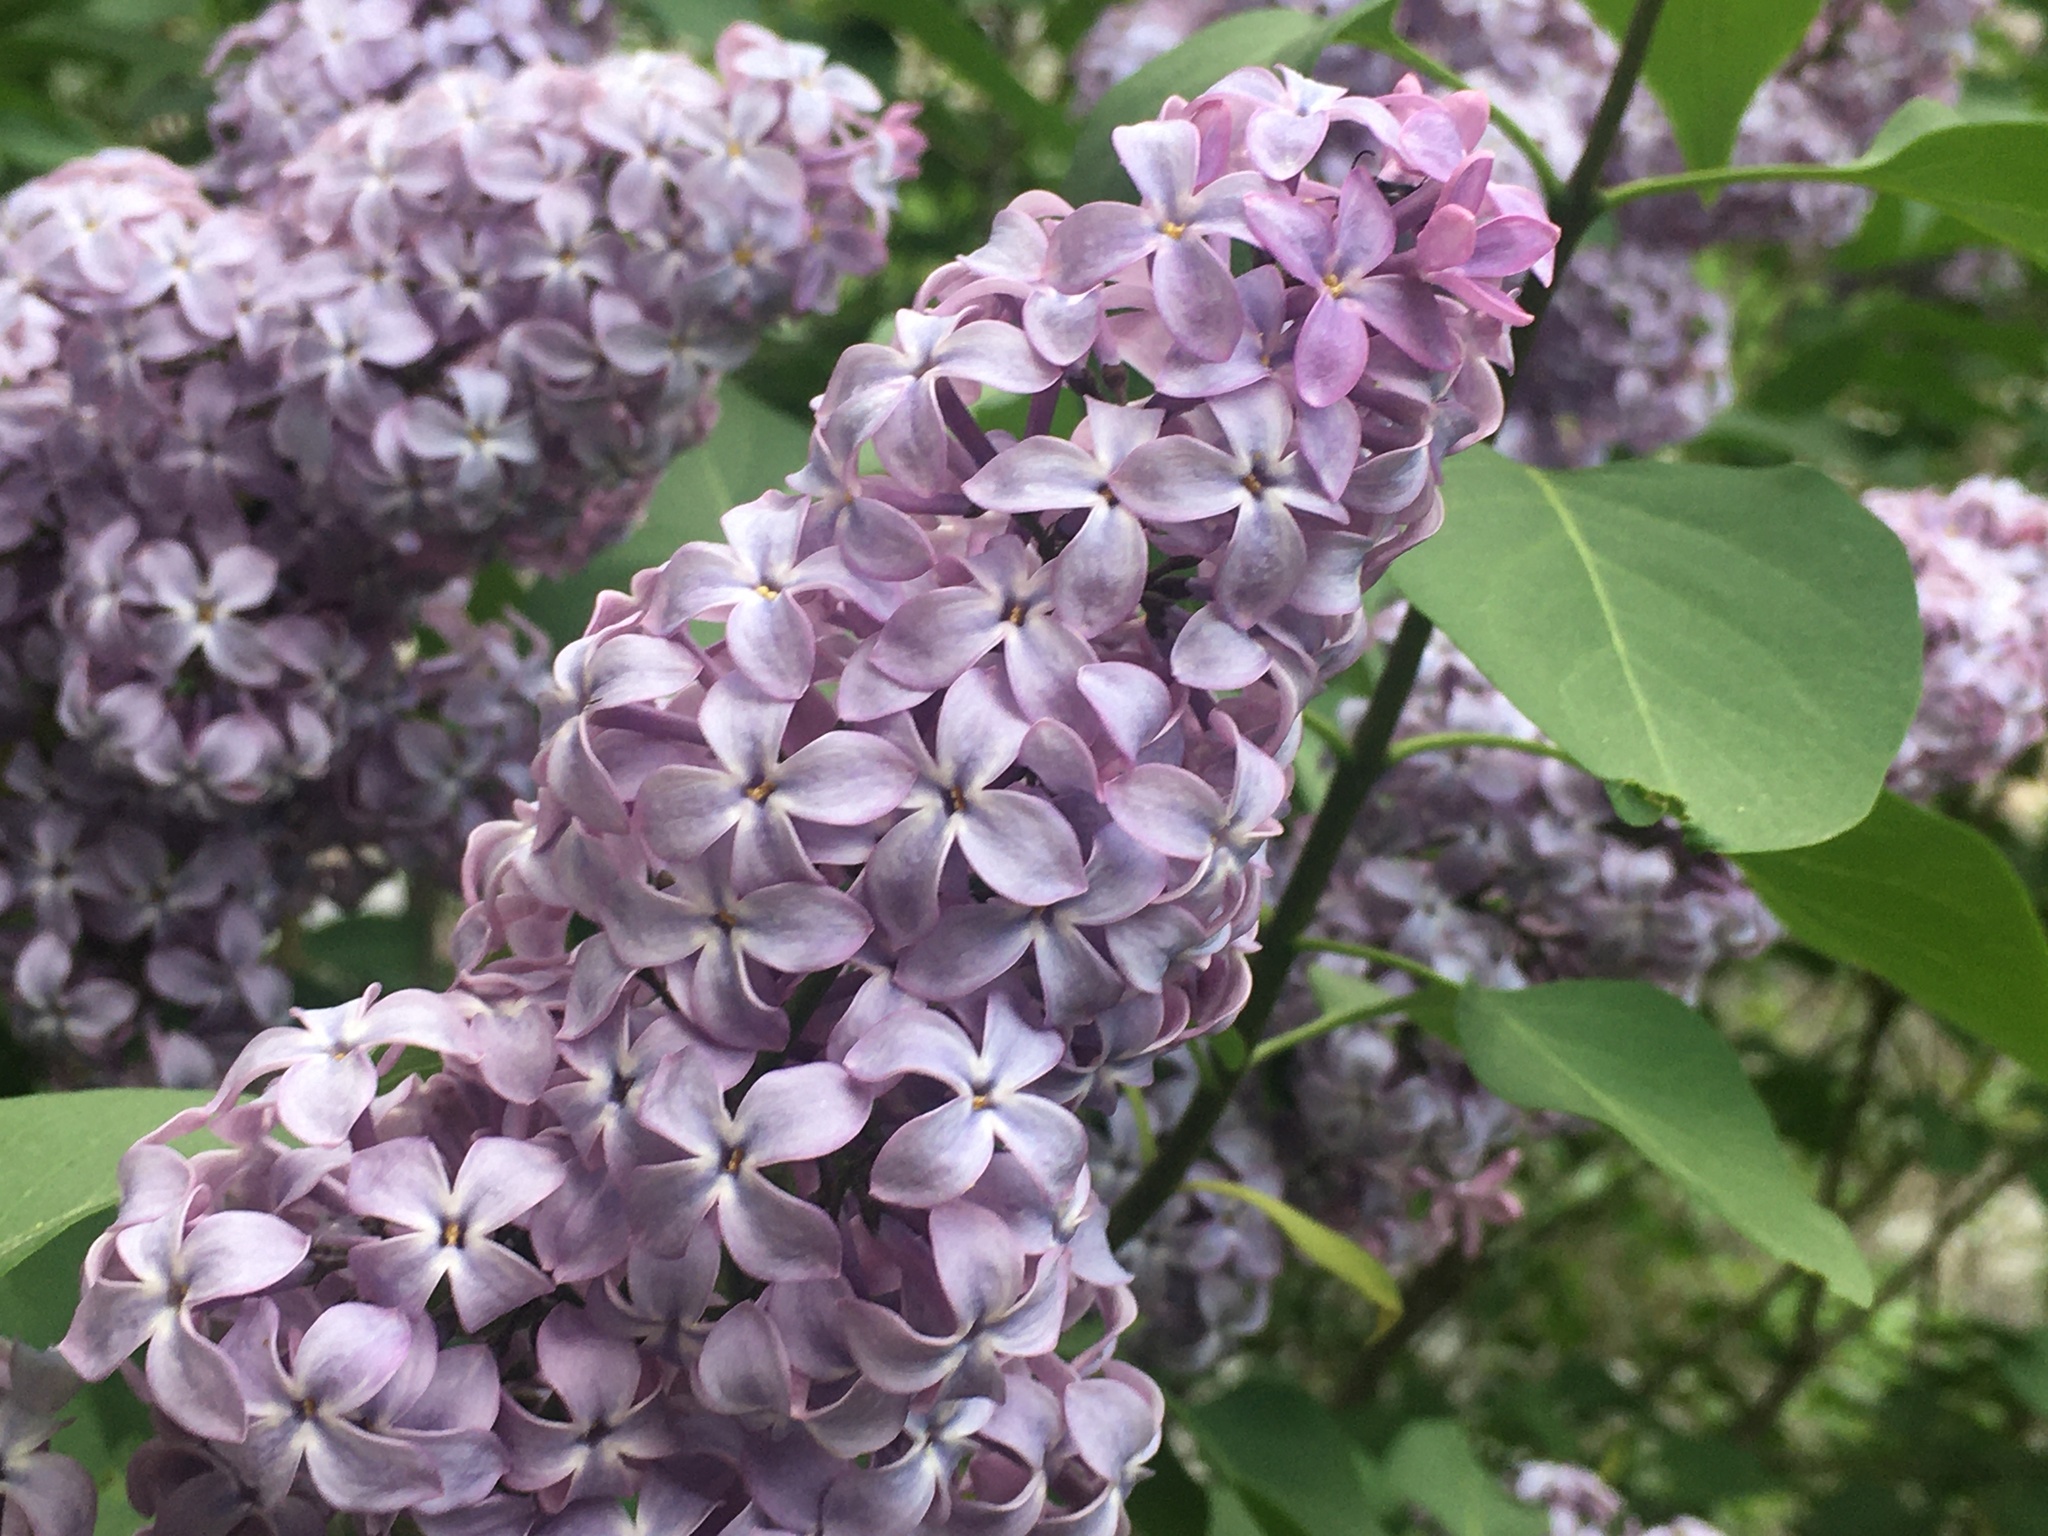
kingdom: Plantae
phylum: Tracheophyta
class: Magnoliopsida
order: Lamiales
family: Oleaceae
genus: Syringa
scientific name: Syringa vulgaris
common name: Common lilac
